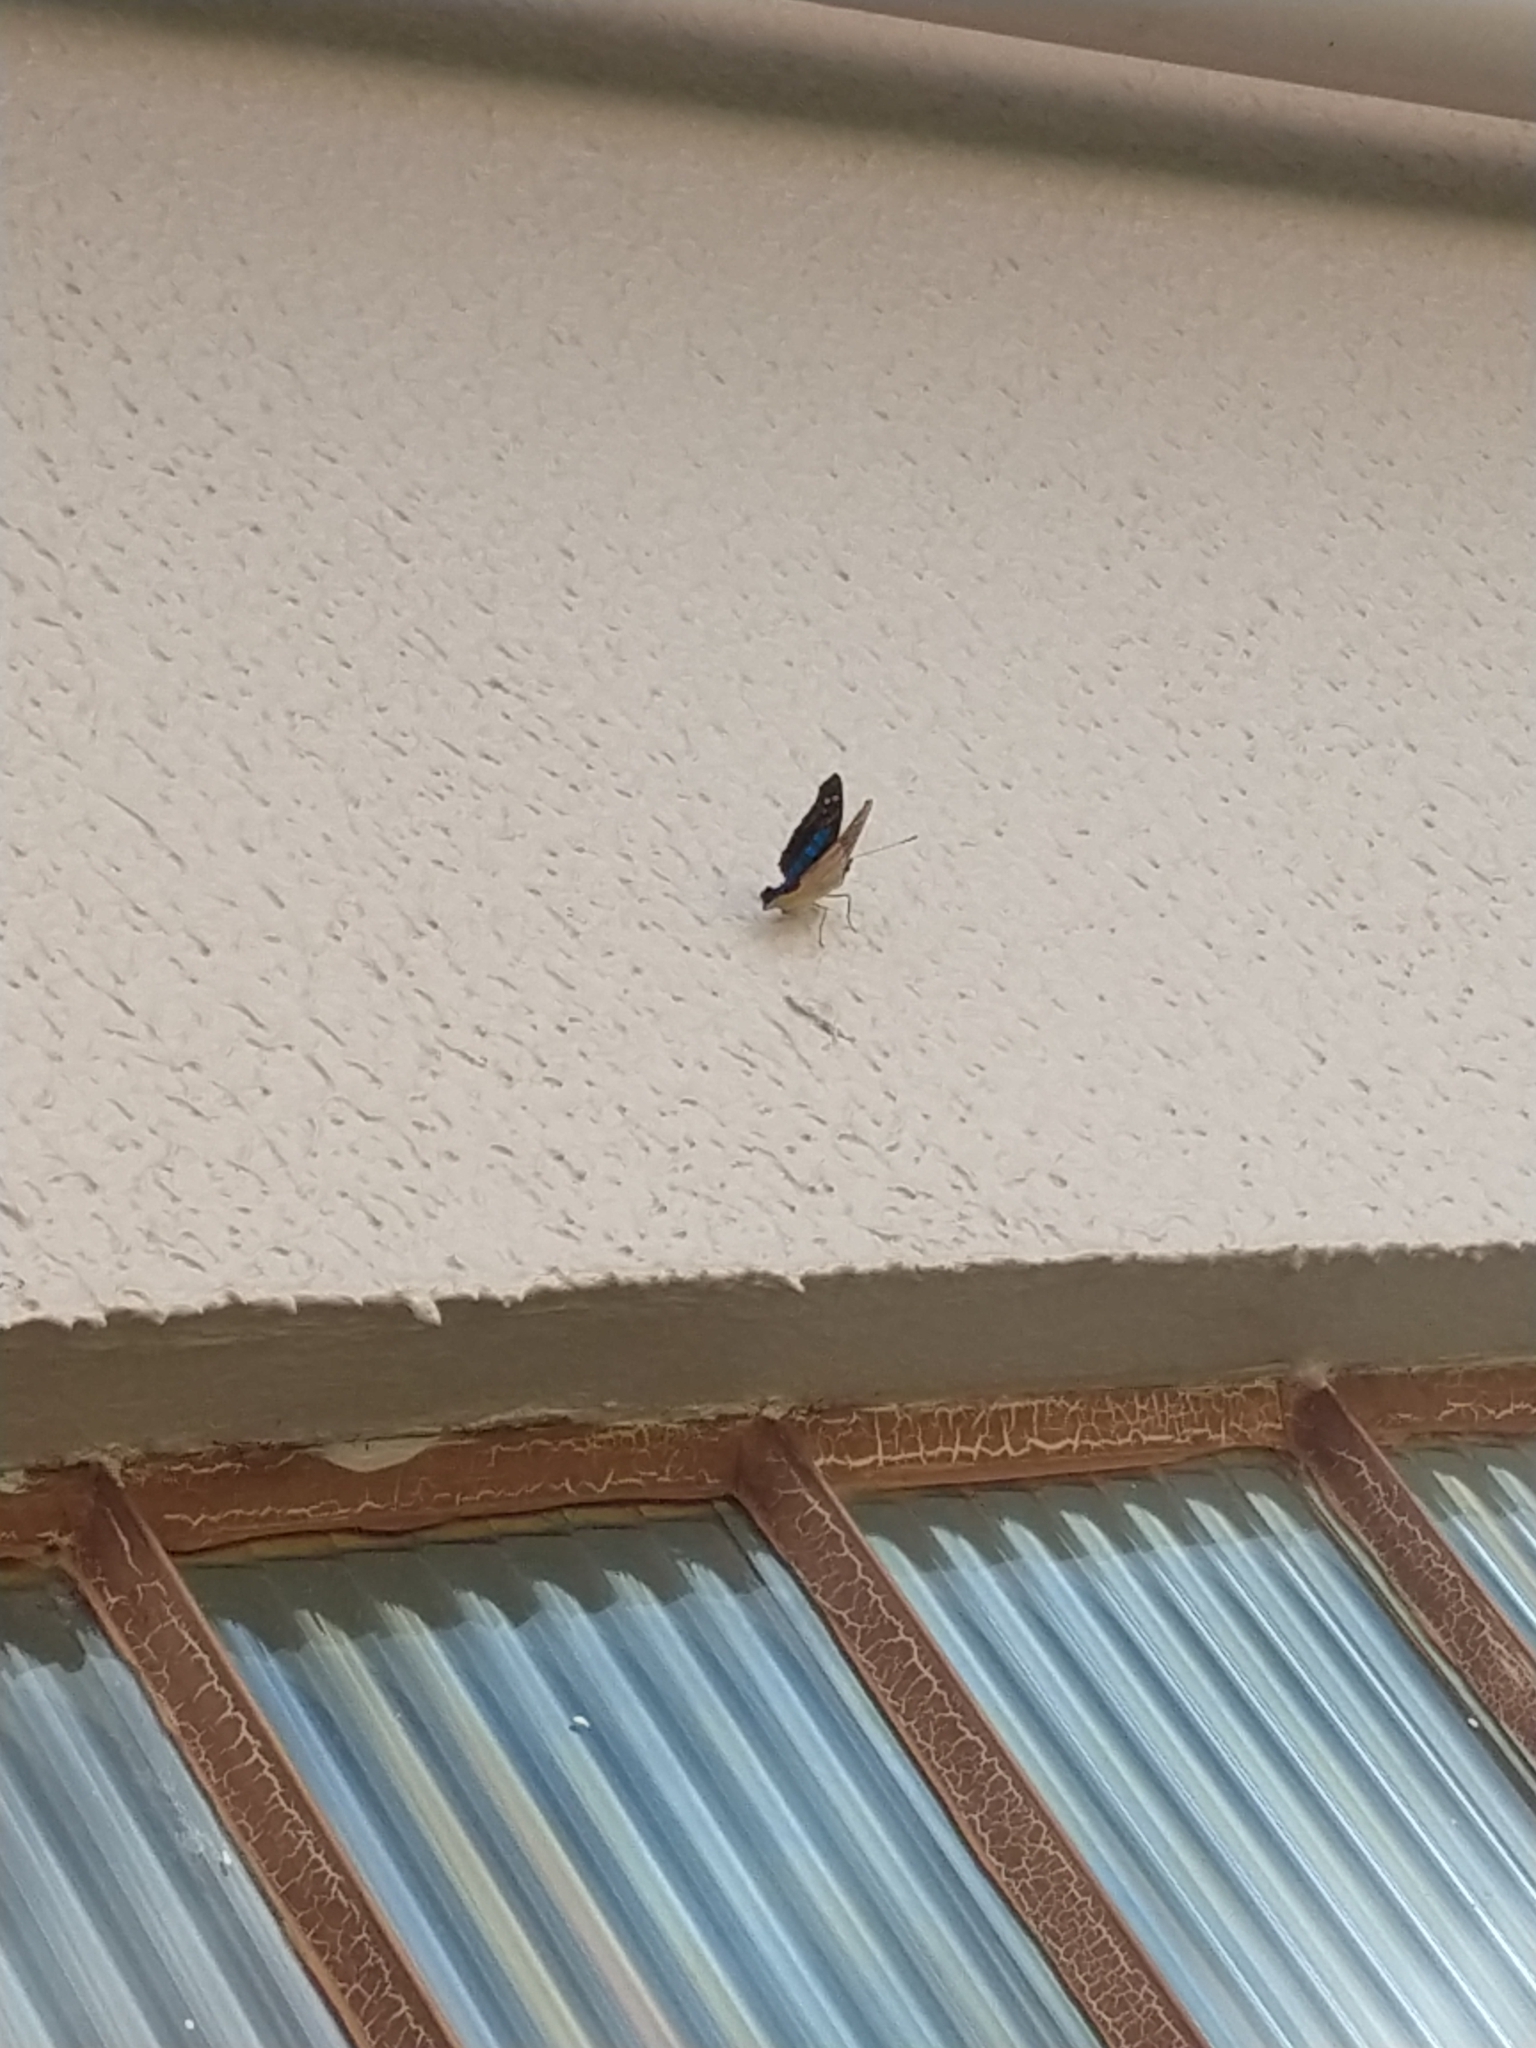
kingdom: Animalia
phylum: Arthropoda
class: Insecta
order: Lepidoptera
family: Nymphalidae
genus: Doxocopa
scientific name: Doxocopa laurentia
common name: Turquoise emperor
